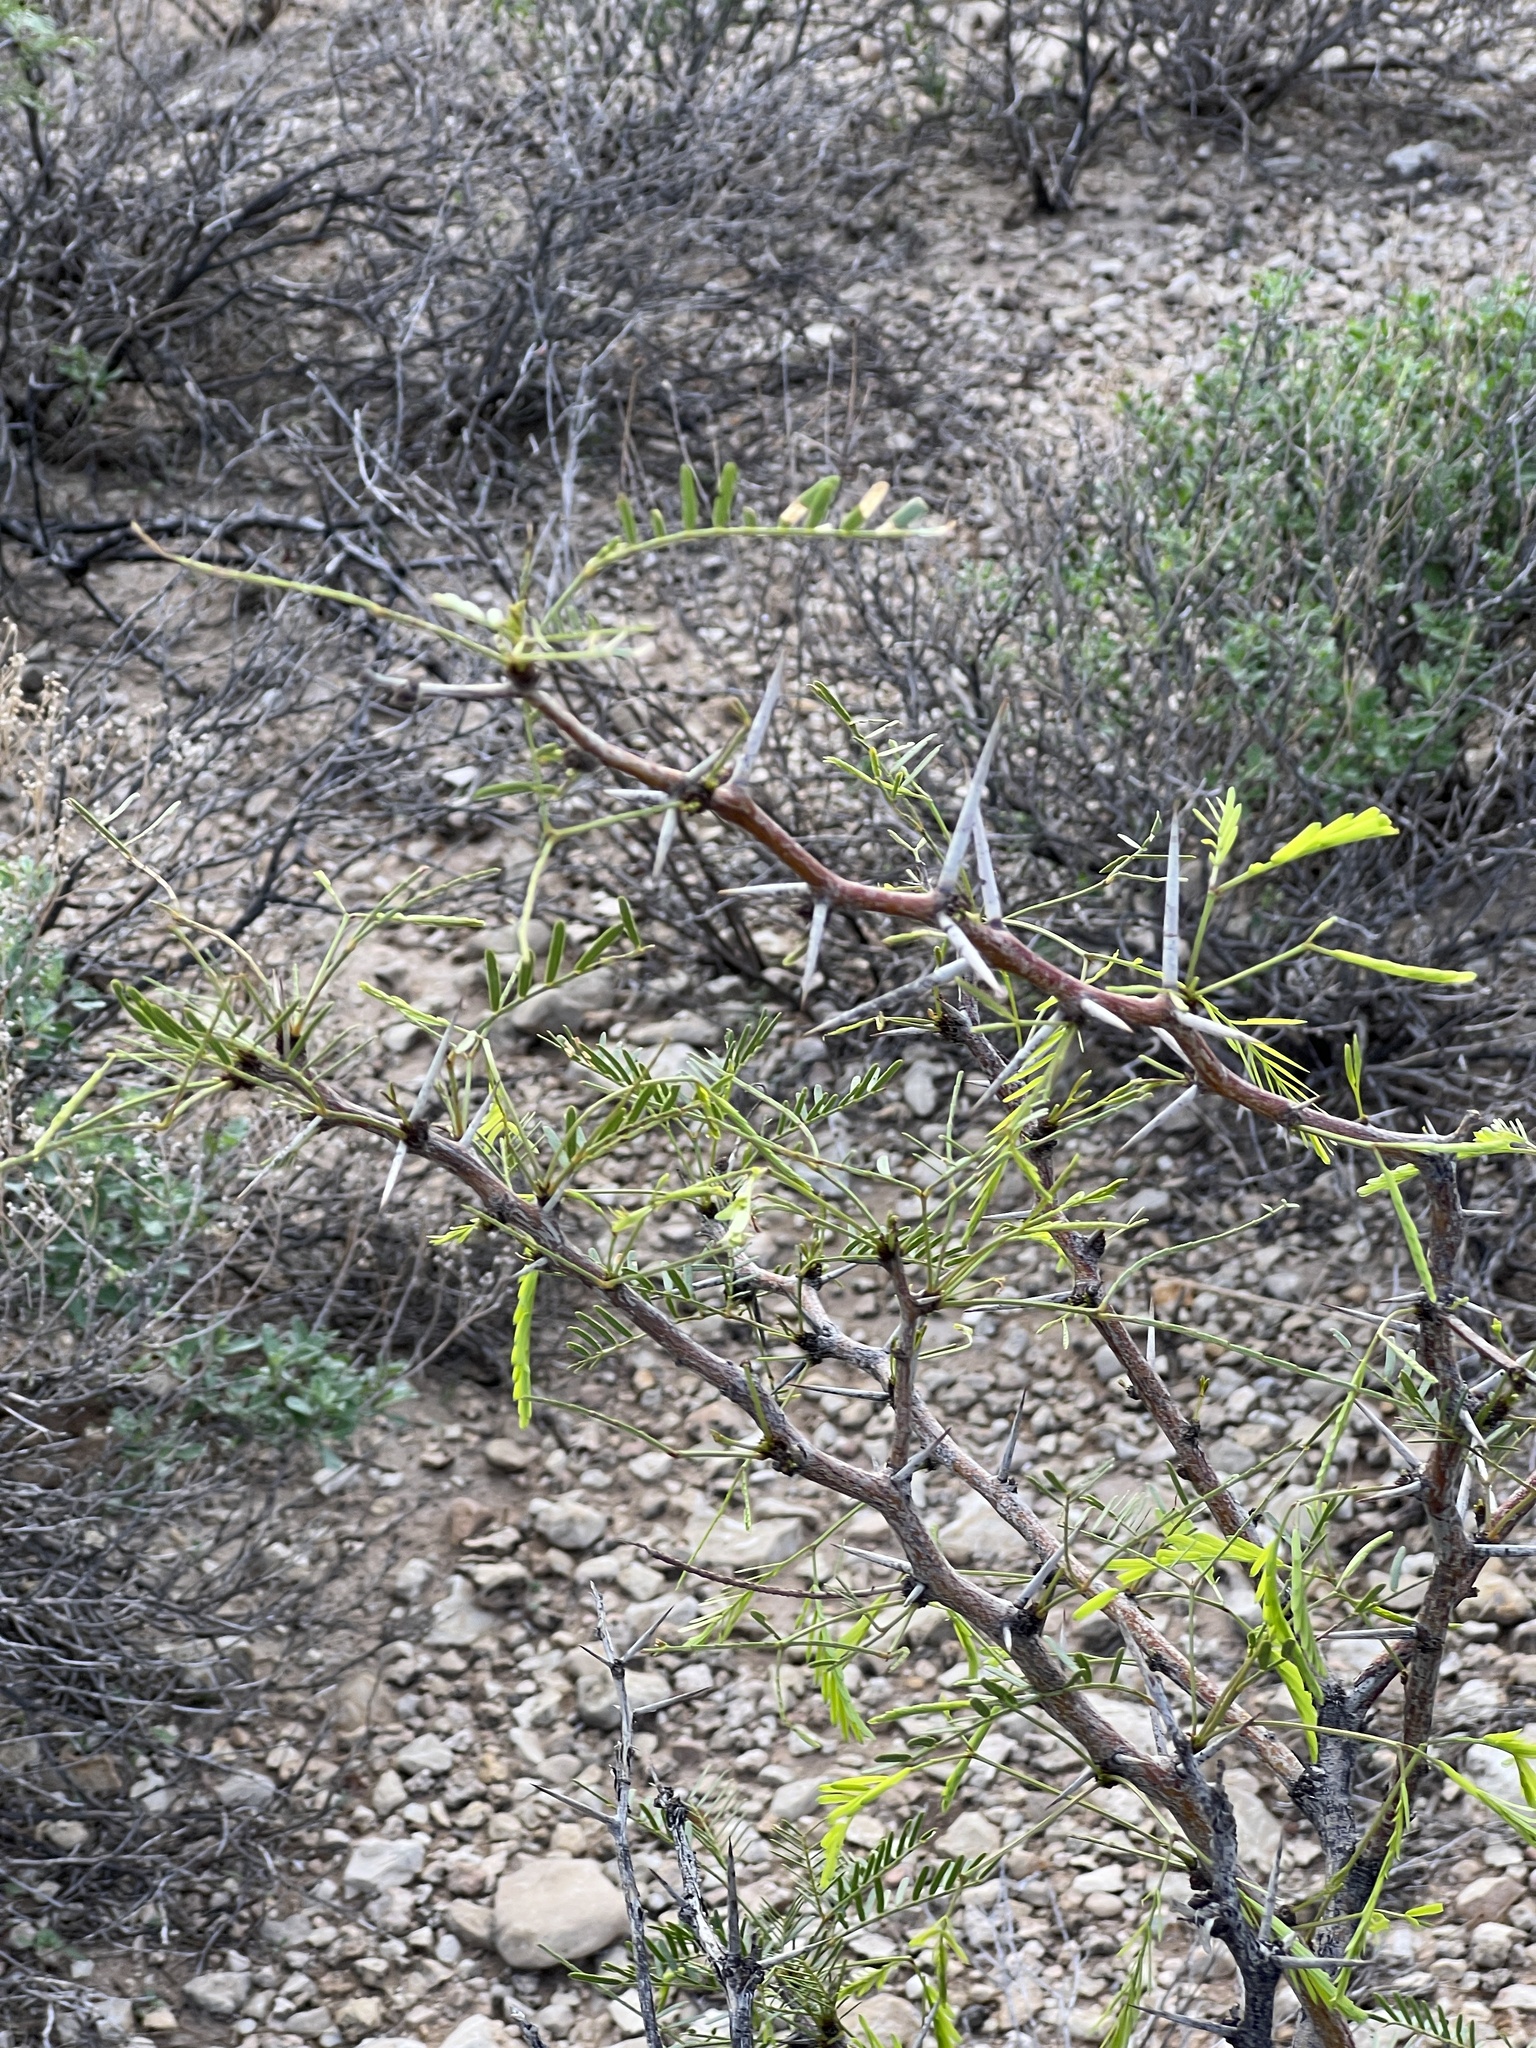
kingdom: Plantae
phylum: Tracheophyta
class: Magnoliopsida
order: Fabales
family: Fabaceae
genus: Prosopis
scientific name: Prosopis glandulosa
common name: Honey mesquite
